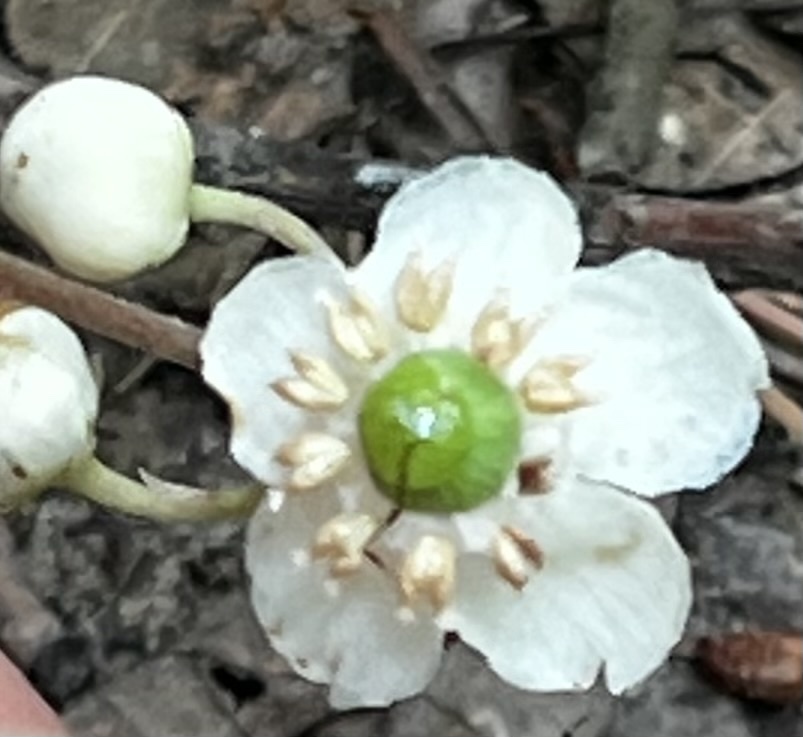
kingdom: Plantae
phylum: Tracheophyta
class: Magnoliopsida
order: Ericales
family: Ericaceae
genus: Chimaphila
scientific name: Chimaphila maculata
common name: Spotted pipsissewa
